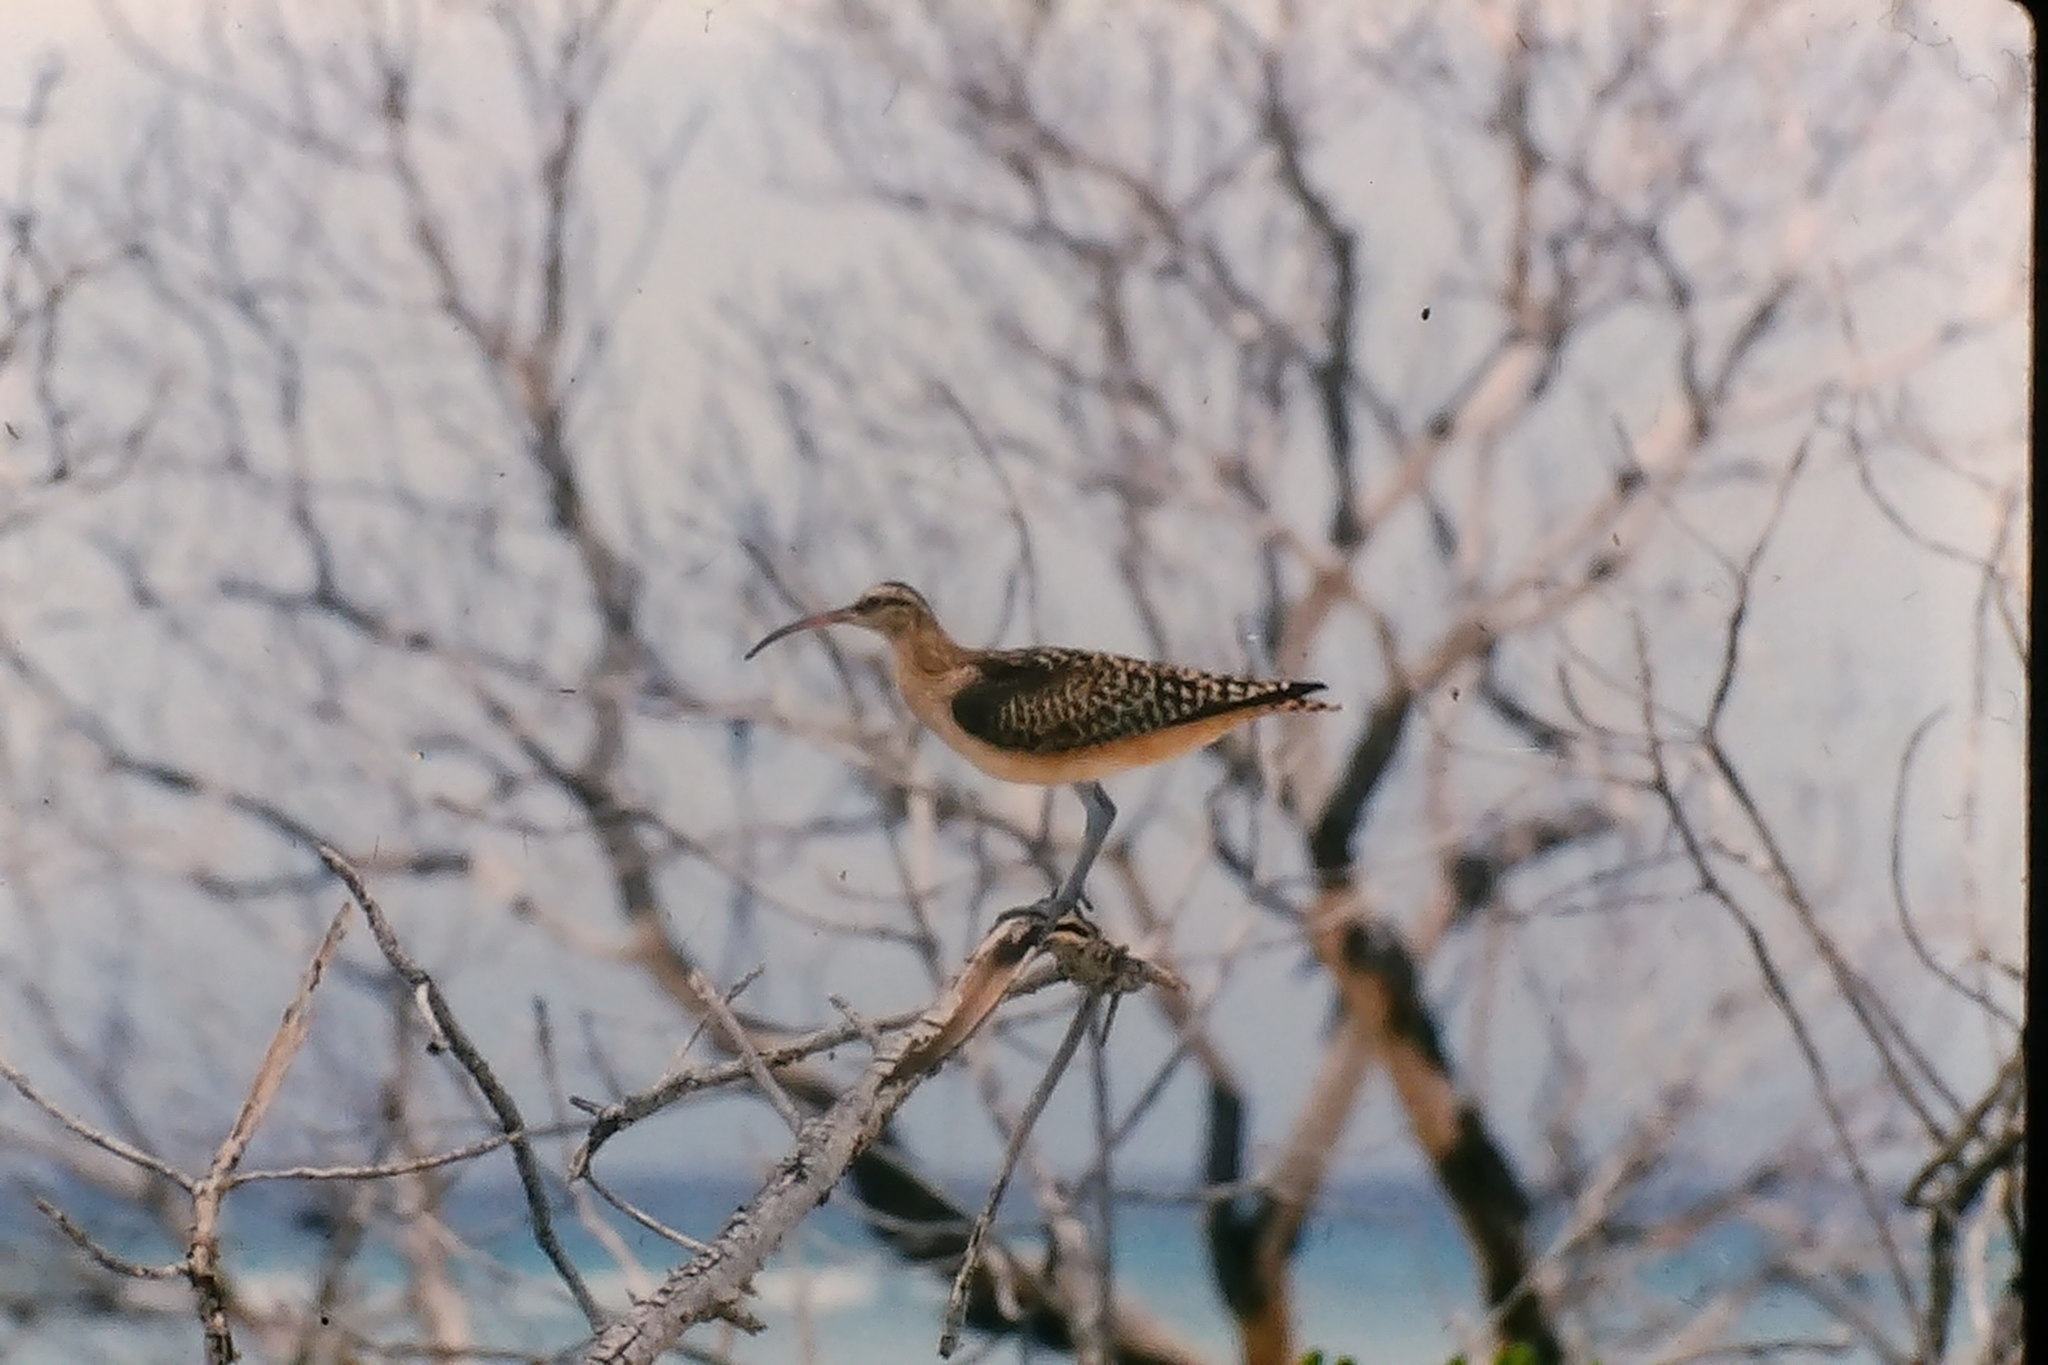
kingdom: Animalia
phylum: Chordata
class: Aves
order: Charadriiformes
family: Scolopacidae
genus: Numenius
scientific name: Numenius tahitiensis
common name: Bristle-thighed curlew
